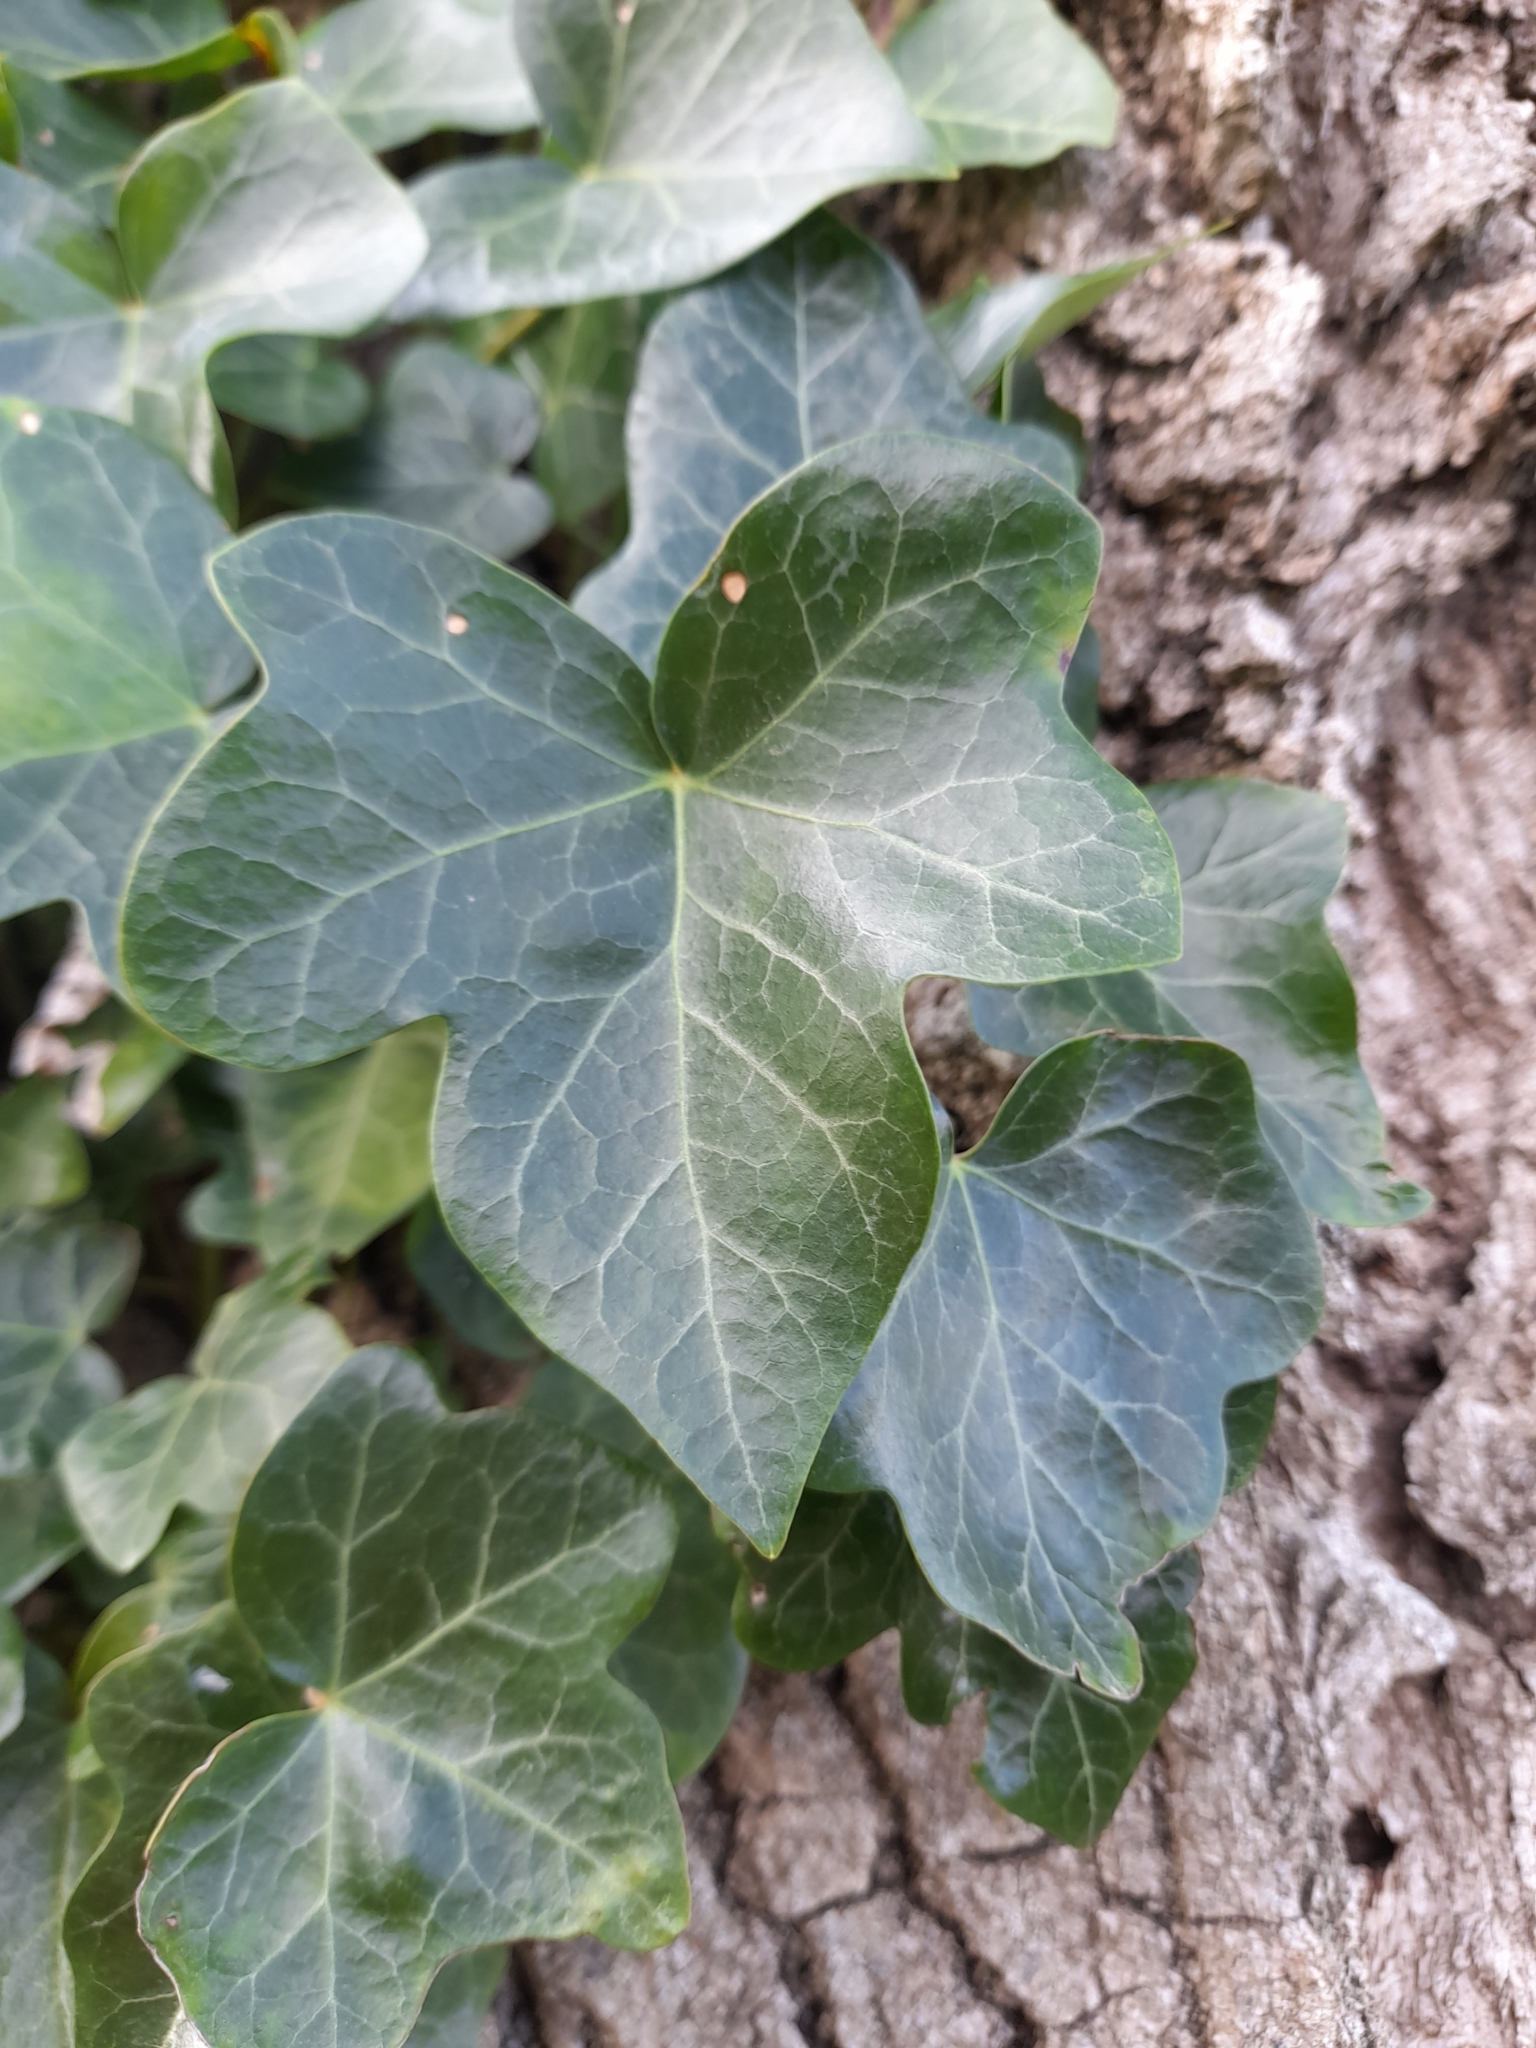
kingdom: Plantae
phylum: Tracheophyta
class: Magnoliopsida
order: Apiales
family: Araliaceae
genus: Hedera
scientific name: Hedera helix
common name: Ivy
